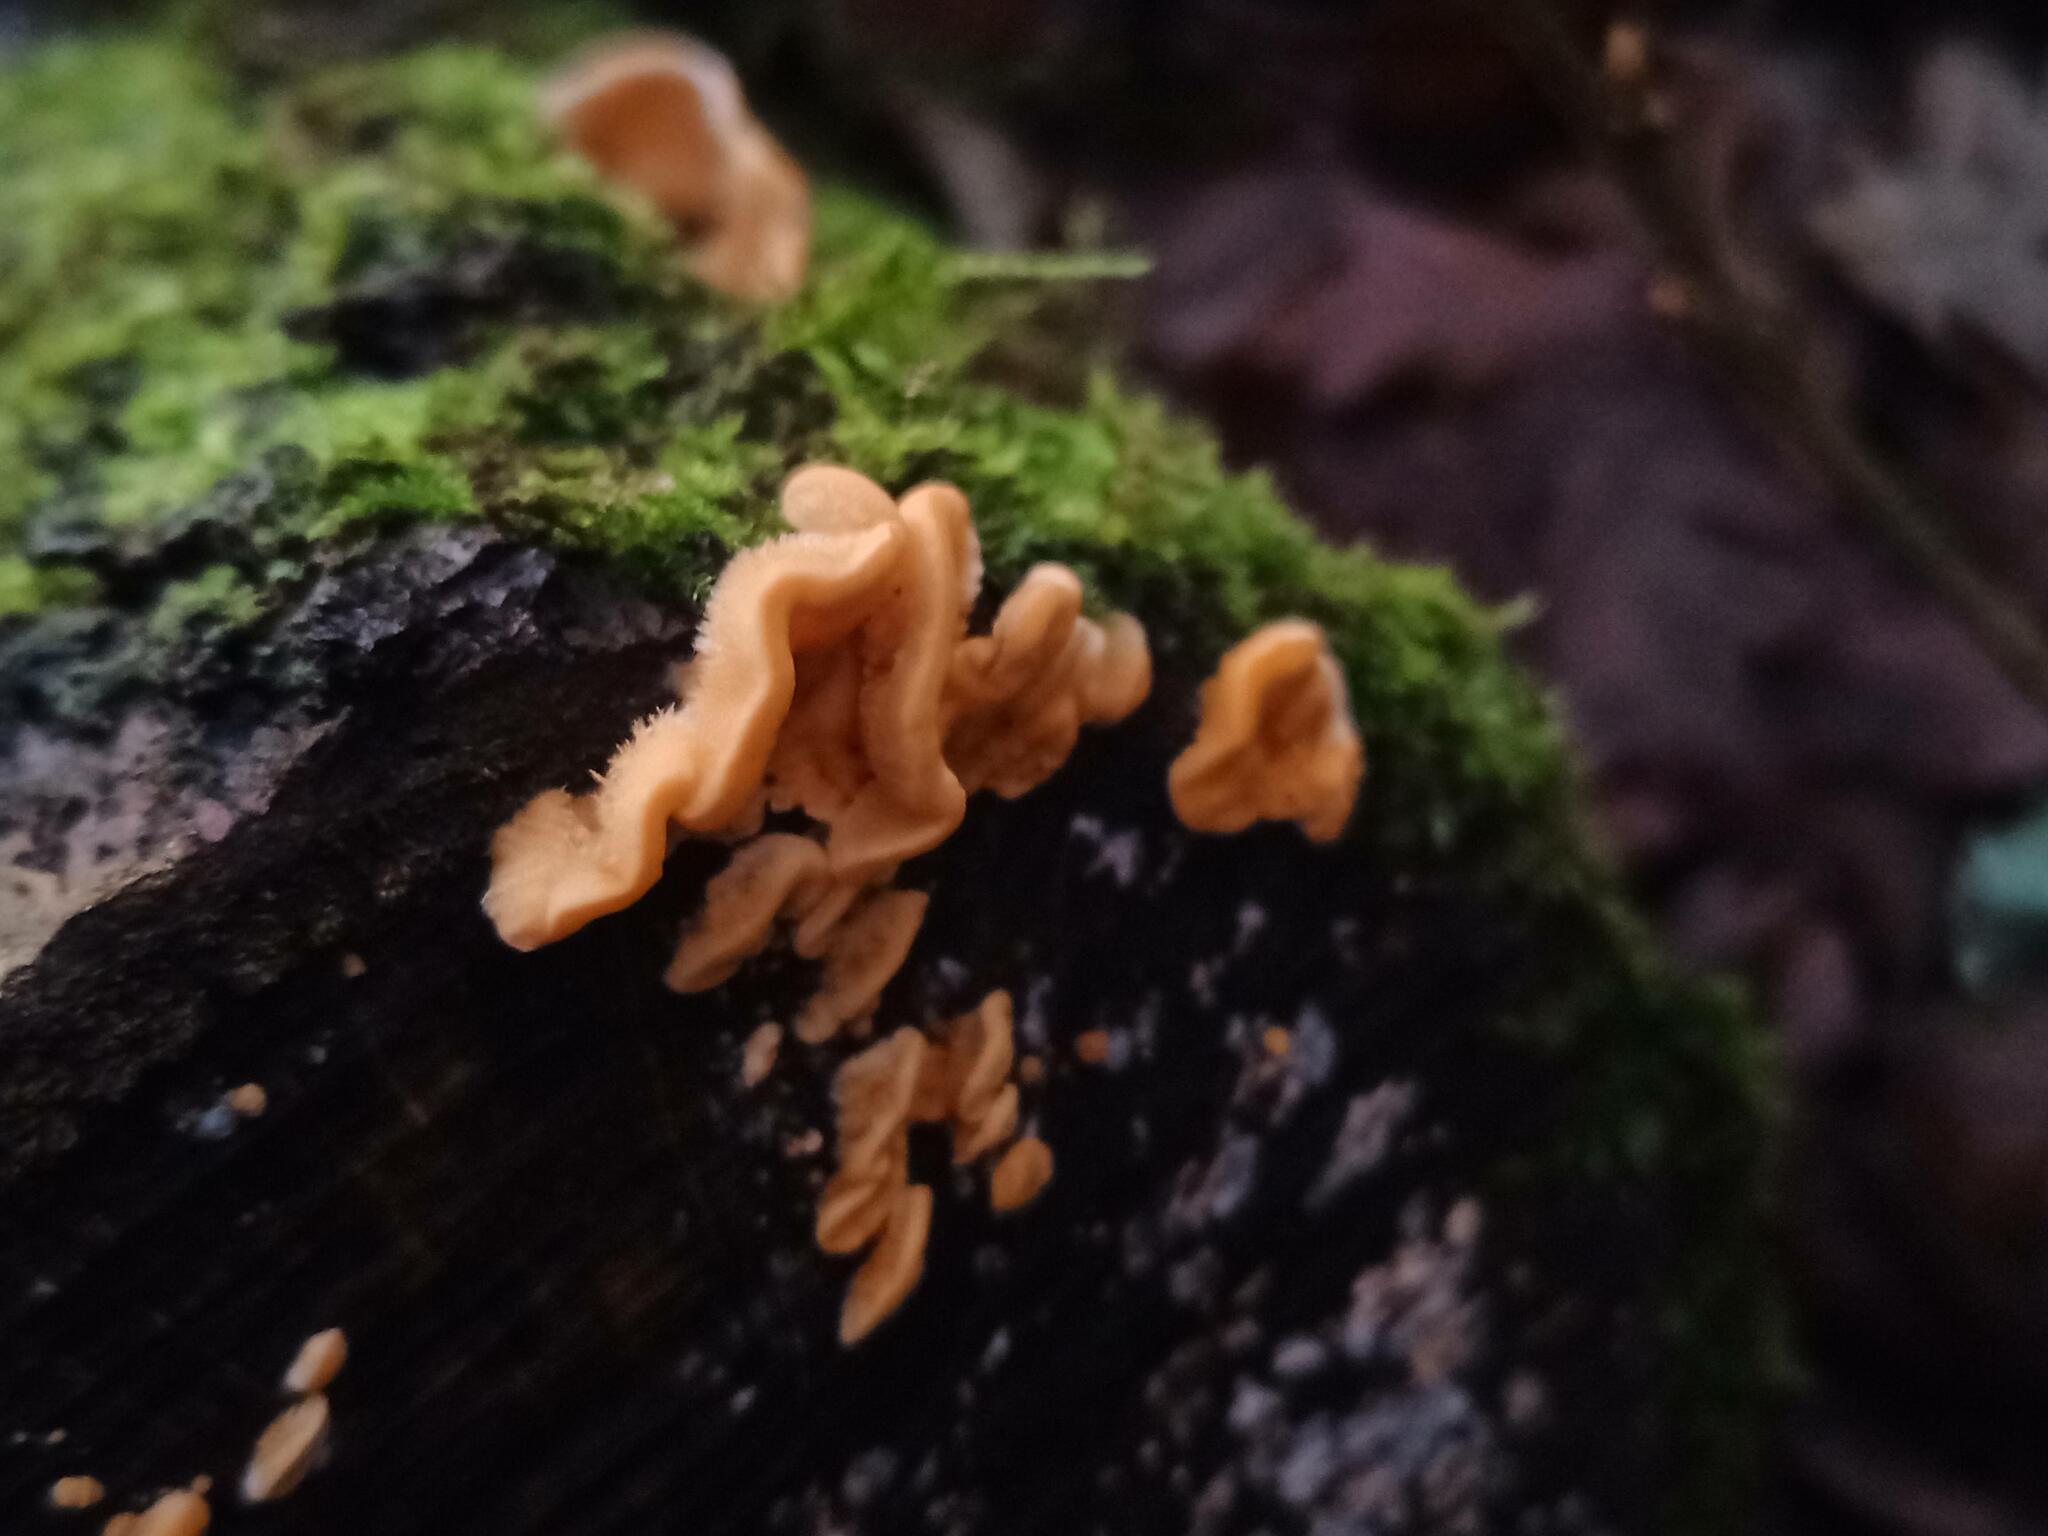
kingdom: Fungi
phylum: Basidiomycota
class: Agaricomycetes
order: Russulales
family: Stereaceae
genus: Stereum
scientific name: Stereum hirsutum
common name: Hairy curtain crust
